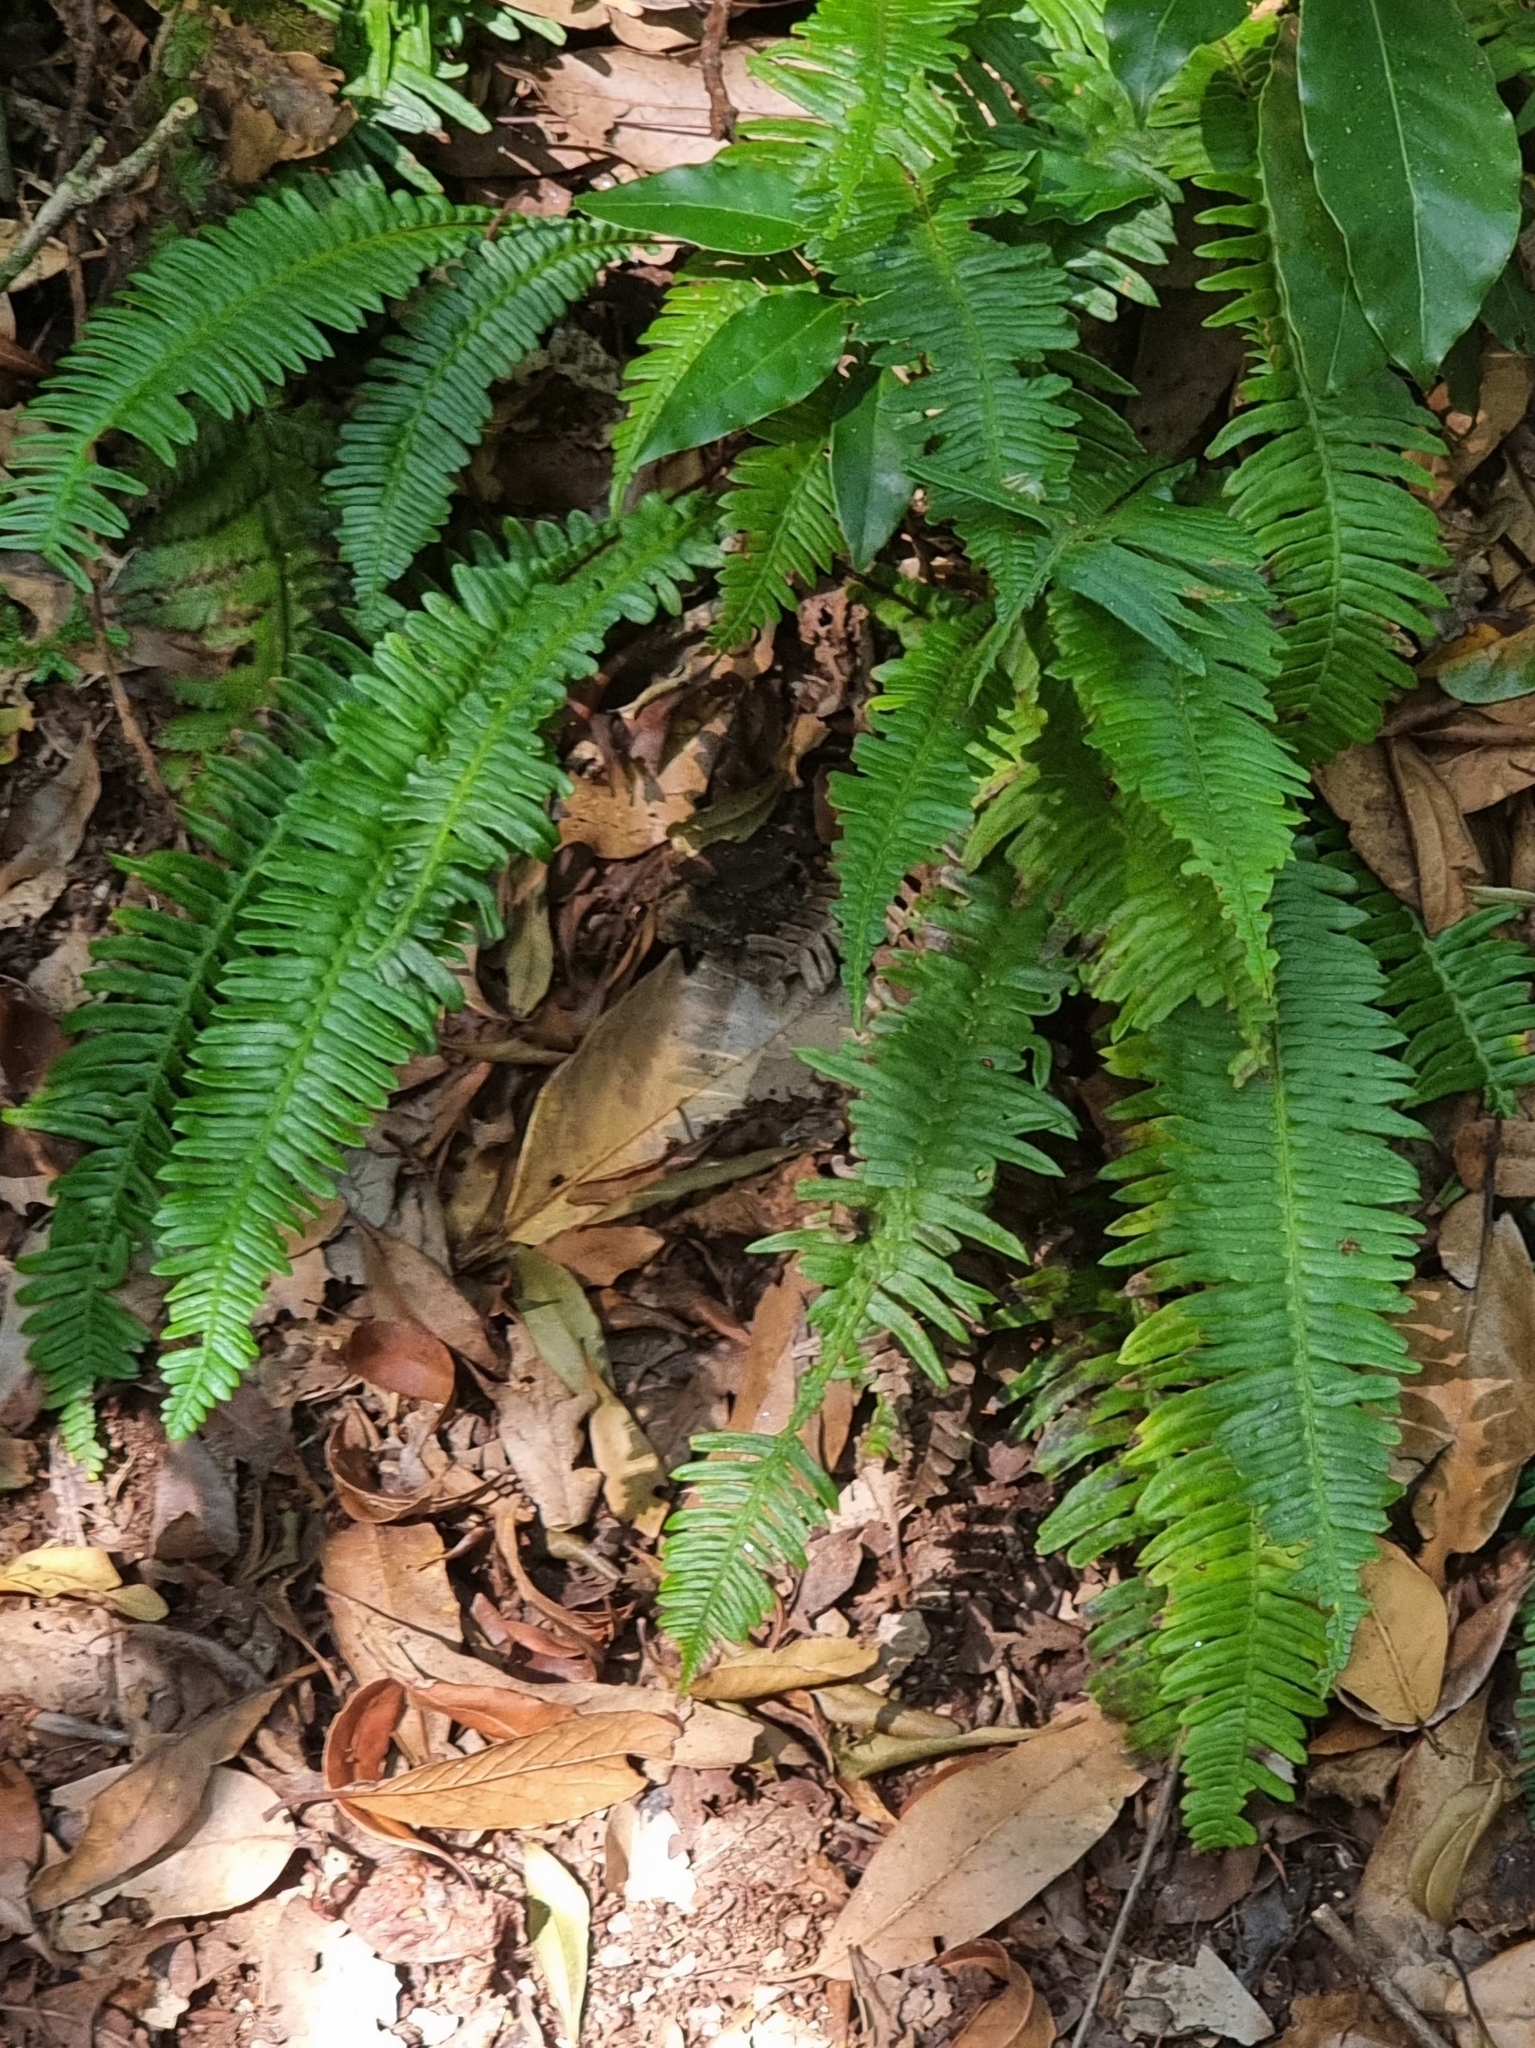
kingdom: Plantae
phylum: Tracheophyta
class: Polypodiopsida
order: Polypodiales
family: Blechnaceae
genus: Struthiopteris
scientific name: Struthiopteris spicant
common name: Deer fern
